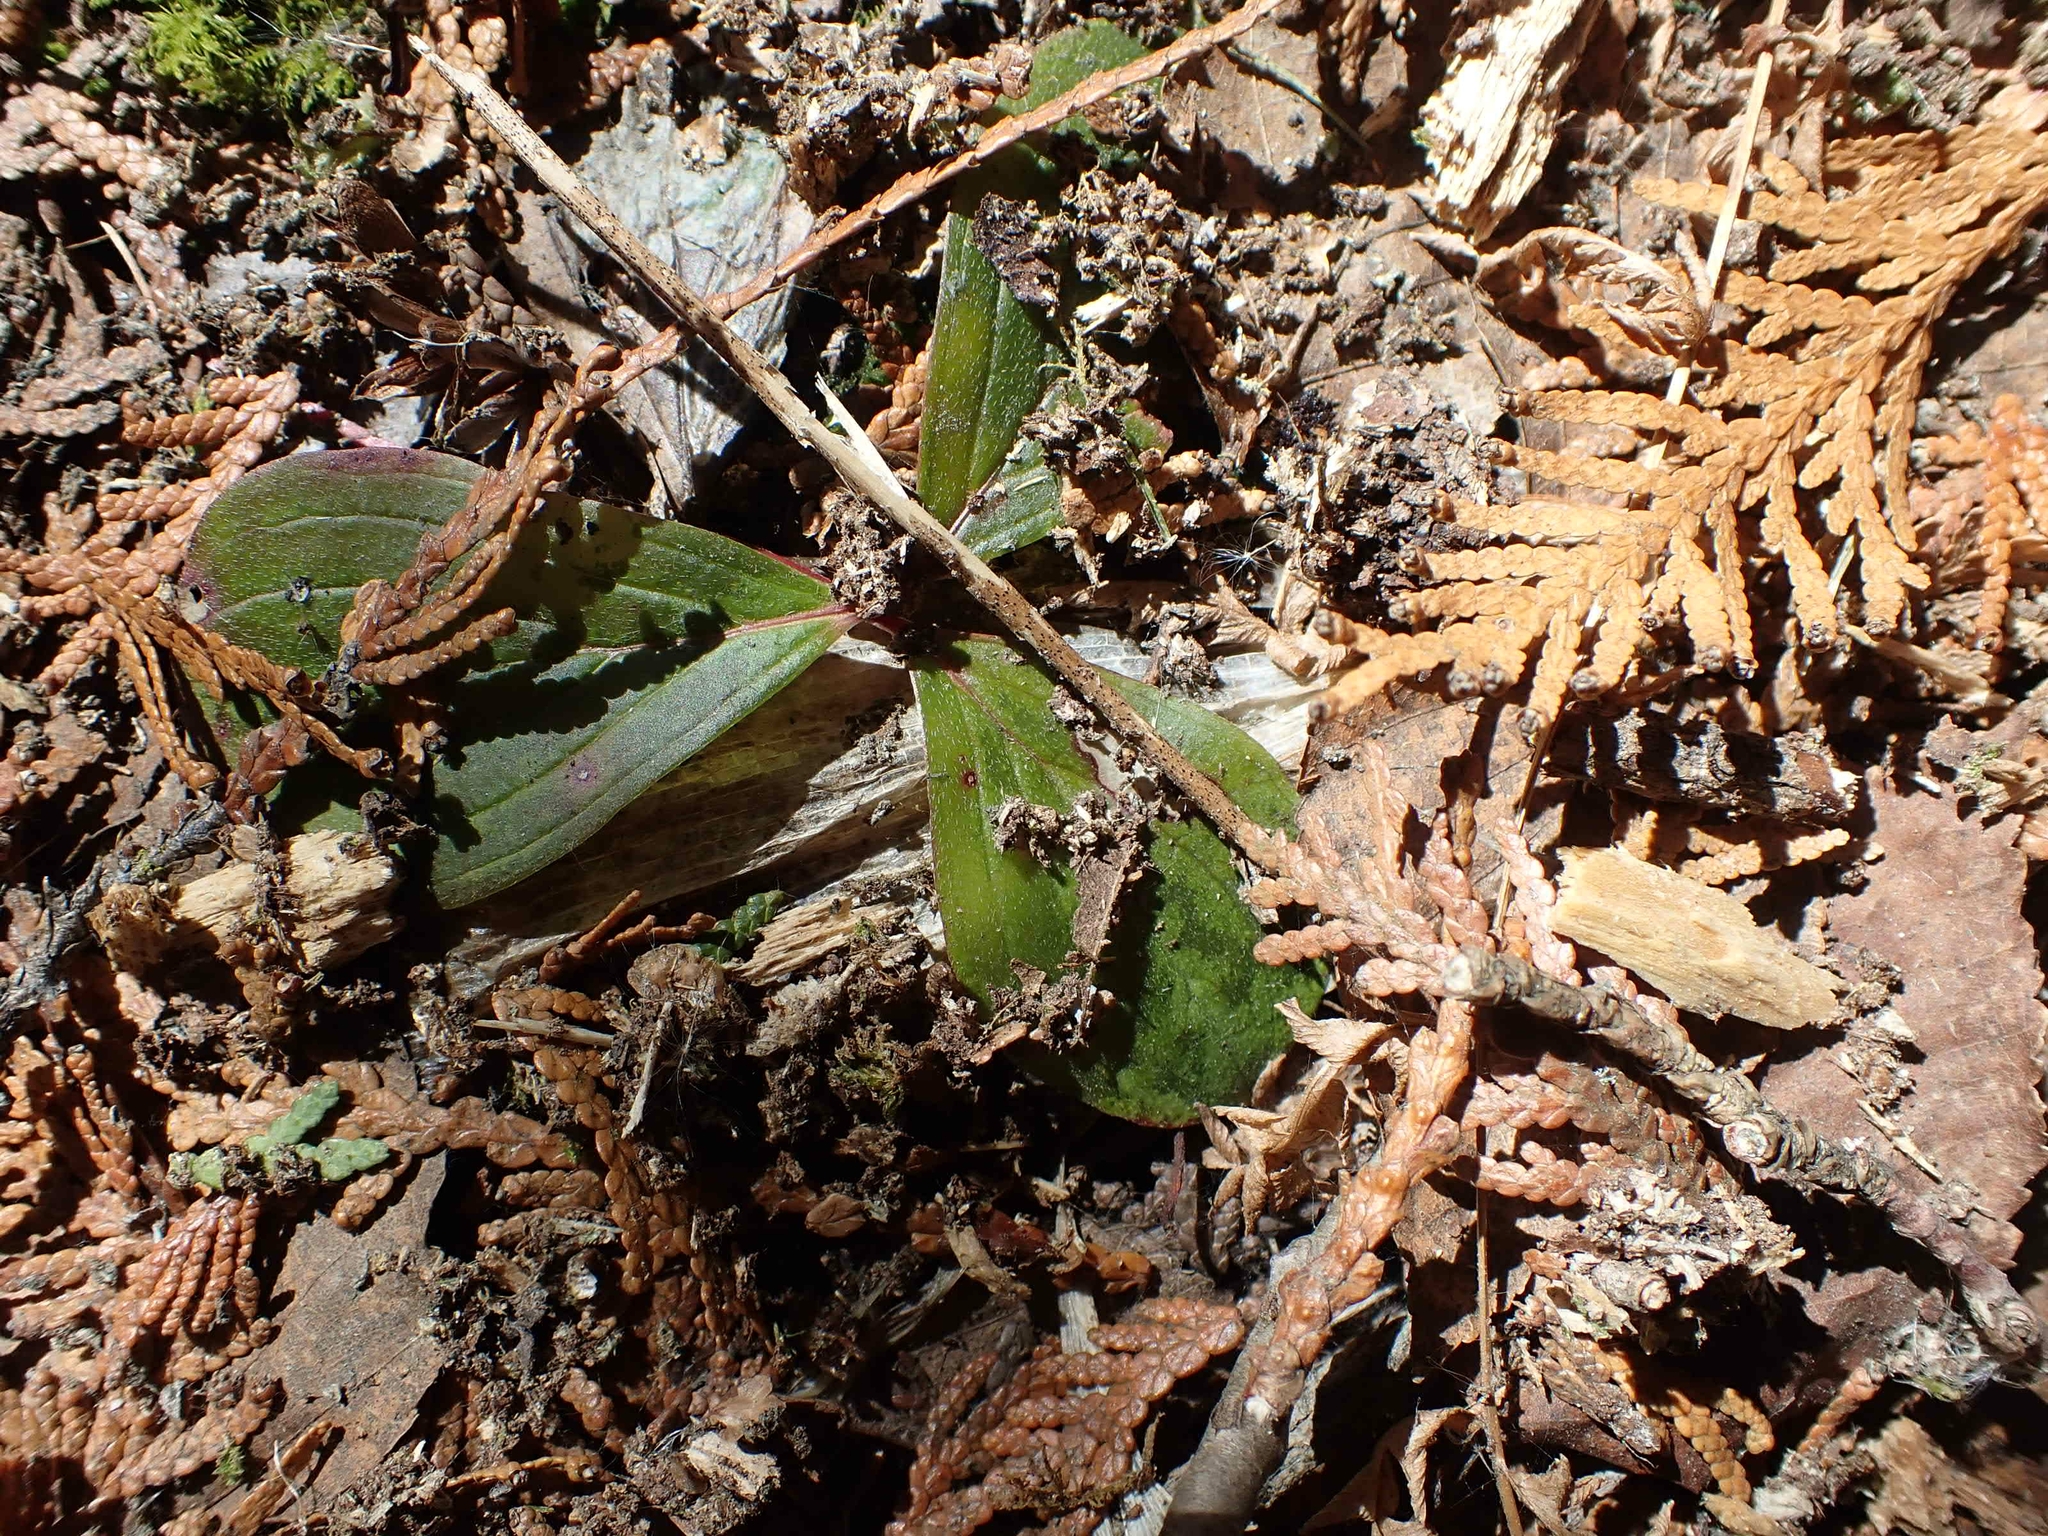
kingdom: Plantae
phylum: Tracheophyta
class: Magnoliopsida
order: Cornales
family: Cornaceae
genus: Cornus
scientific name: Cornus canadensis
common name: Creeping dogwood
